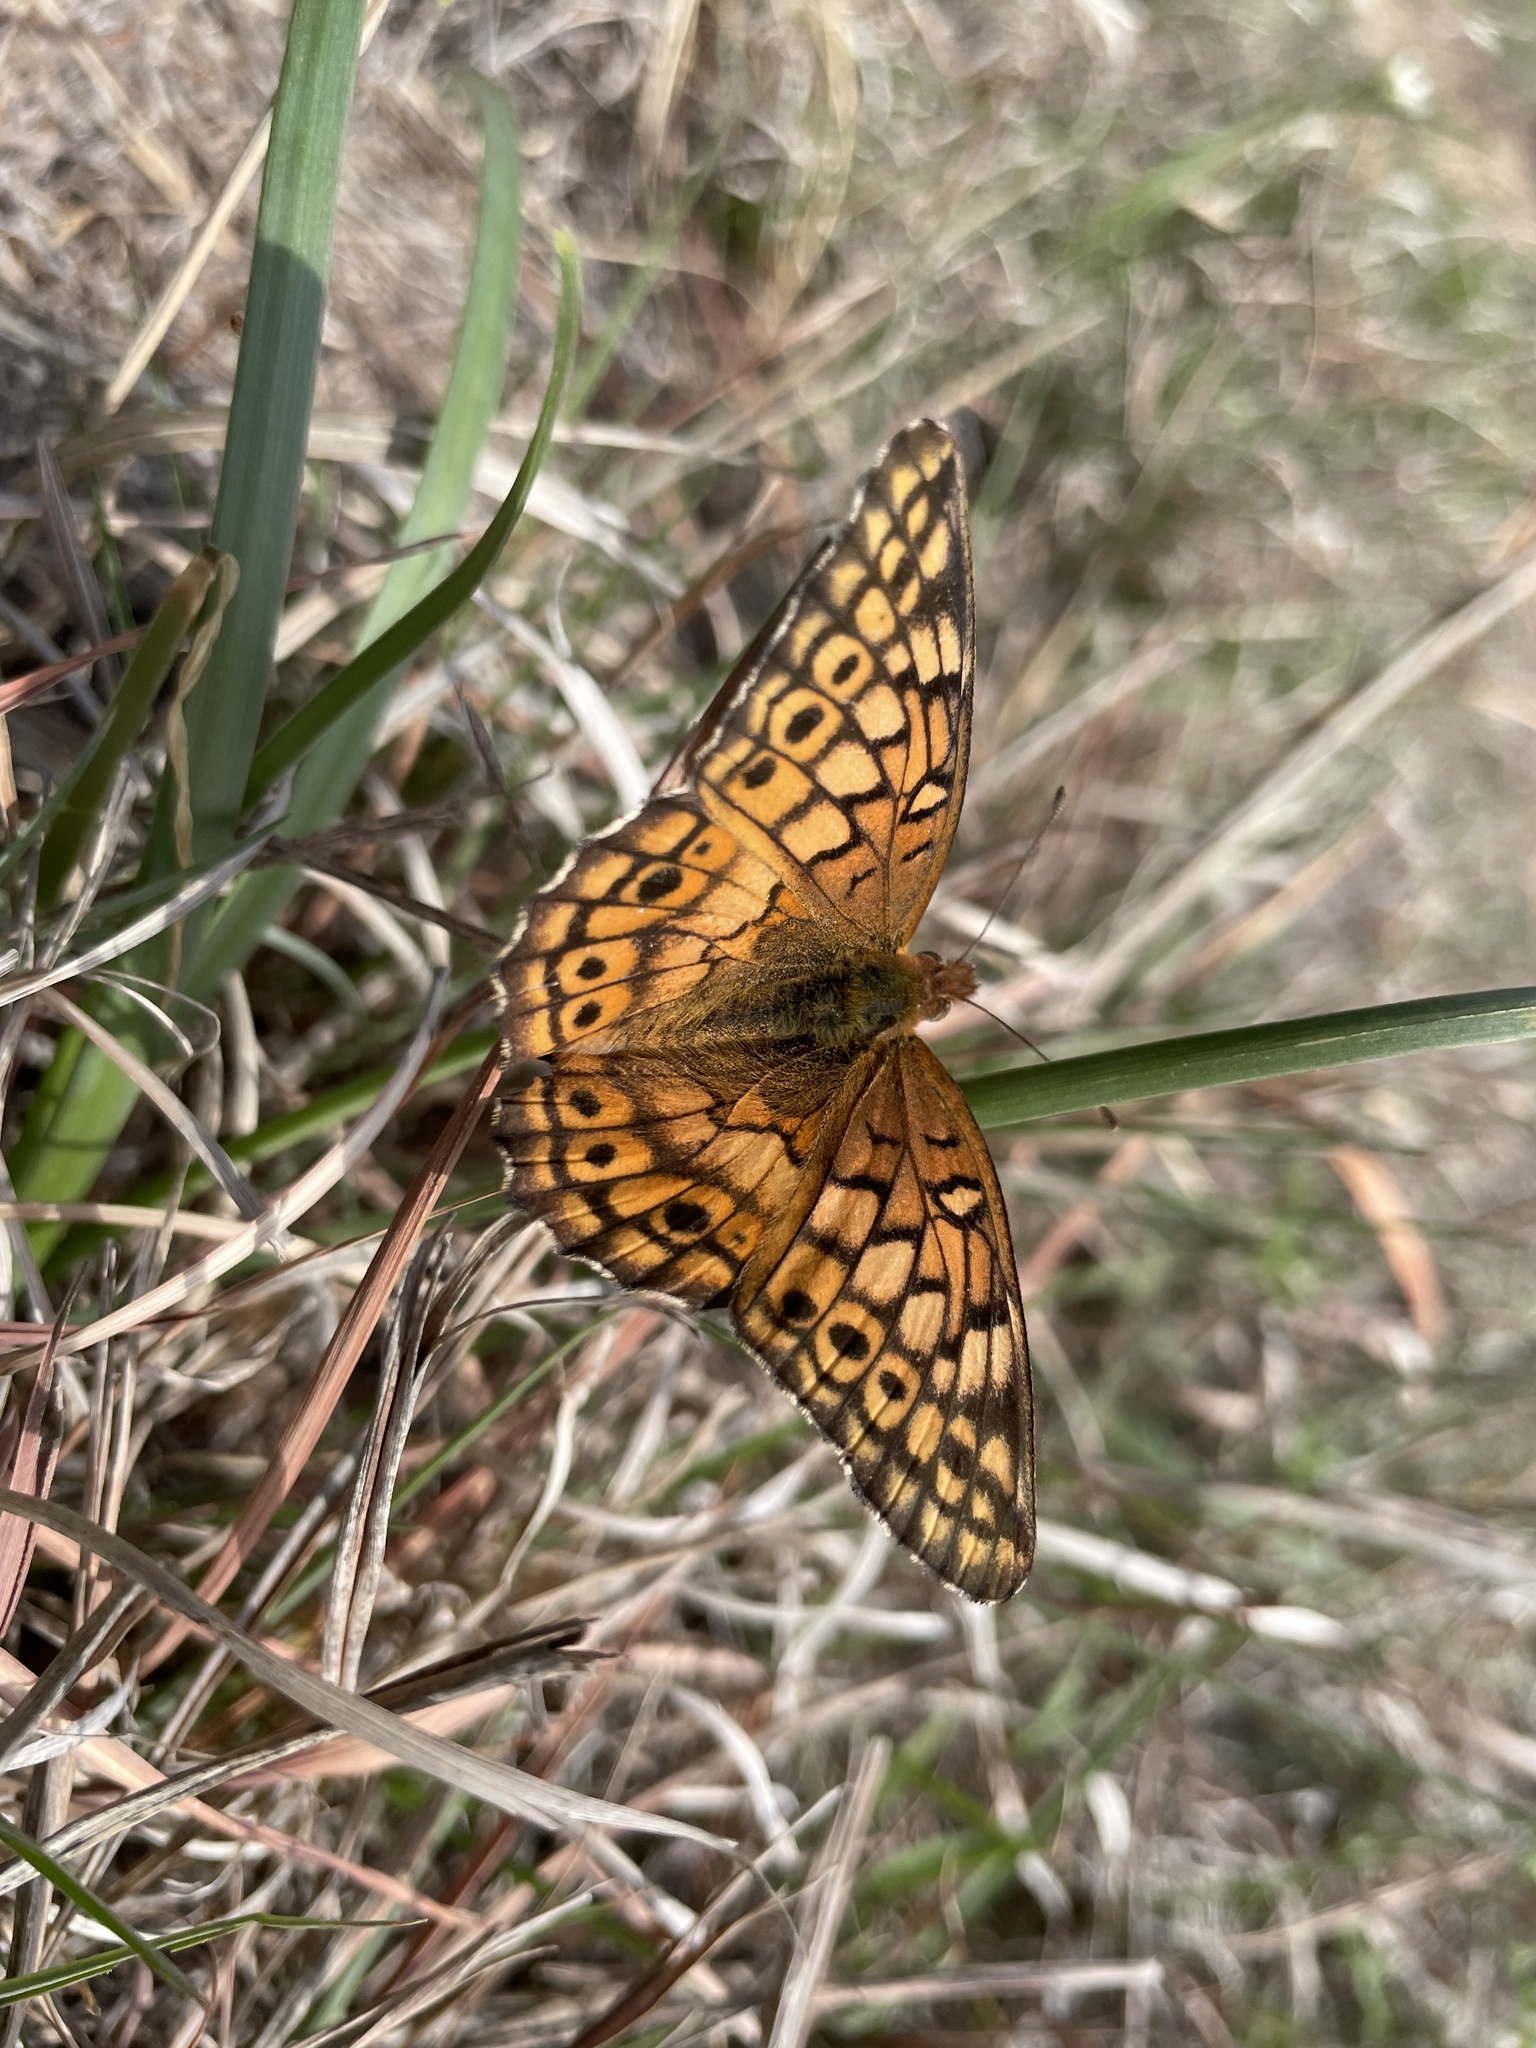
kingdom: Animalia
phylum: Arthropoda
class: Insecta
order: Lepidoptera
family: Nymphalidae
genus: Euptoieta
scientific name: Euptoieta claudia
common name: Variegated fritillary
